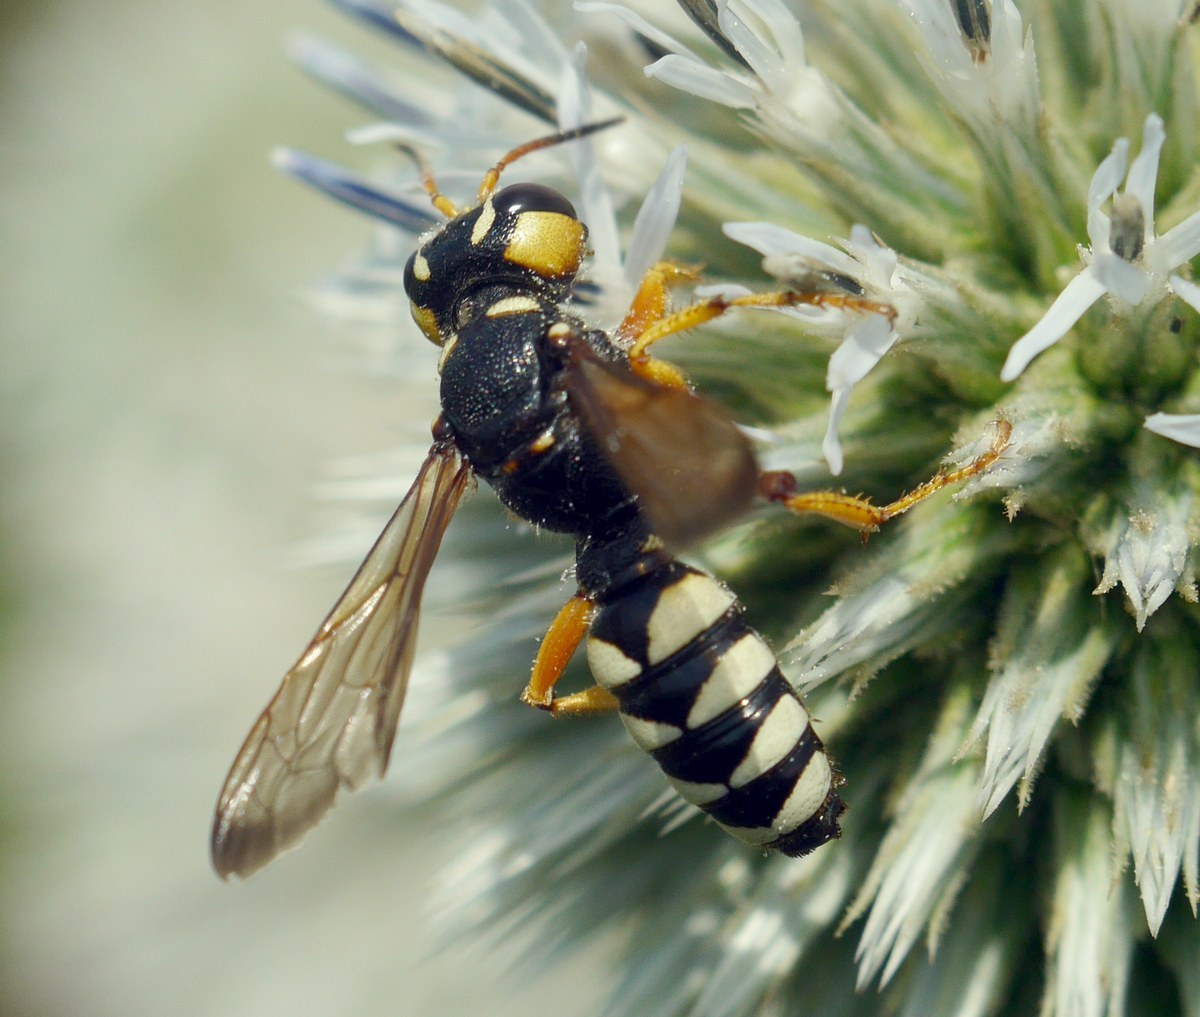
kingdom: Animalia
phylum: Arthropoda
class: Insecta
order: Hymenoptera
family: Crabronidae
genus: Cerceris
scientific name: Cerceris tuberculata
